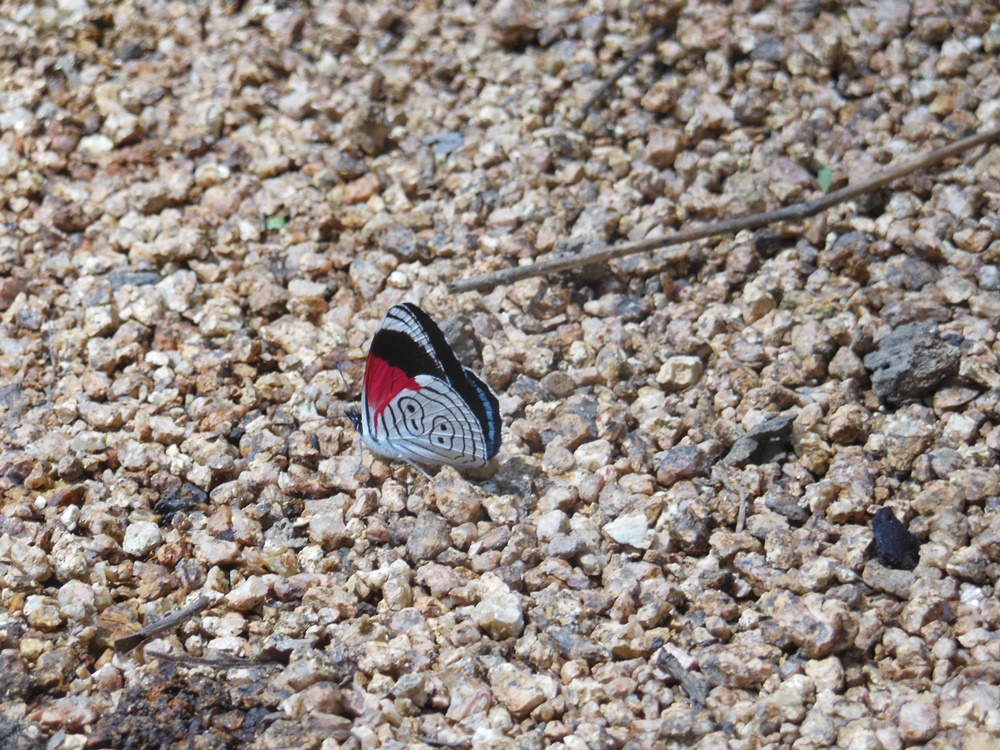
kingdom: Animalia
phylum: Arthropoda
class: Insecta
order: Lepidoptera
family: Nymphalidae
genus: Diaethria
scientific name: Diaethria anna
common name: Anna’s eighty-eight
